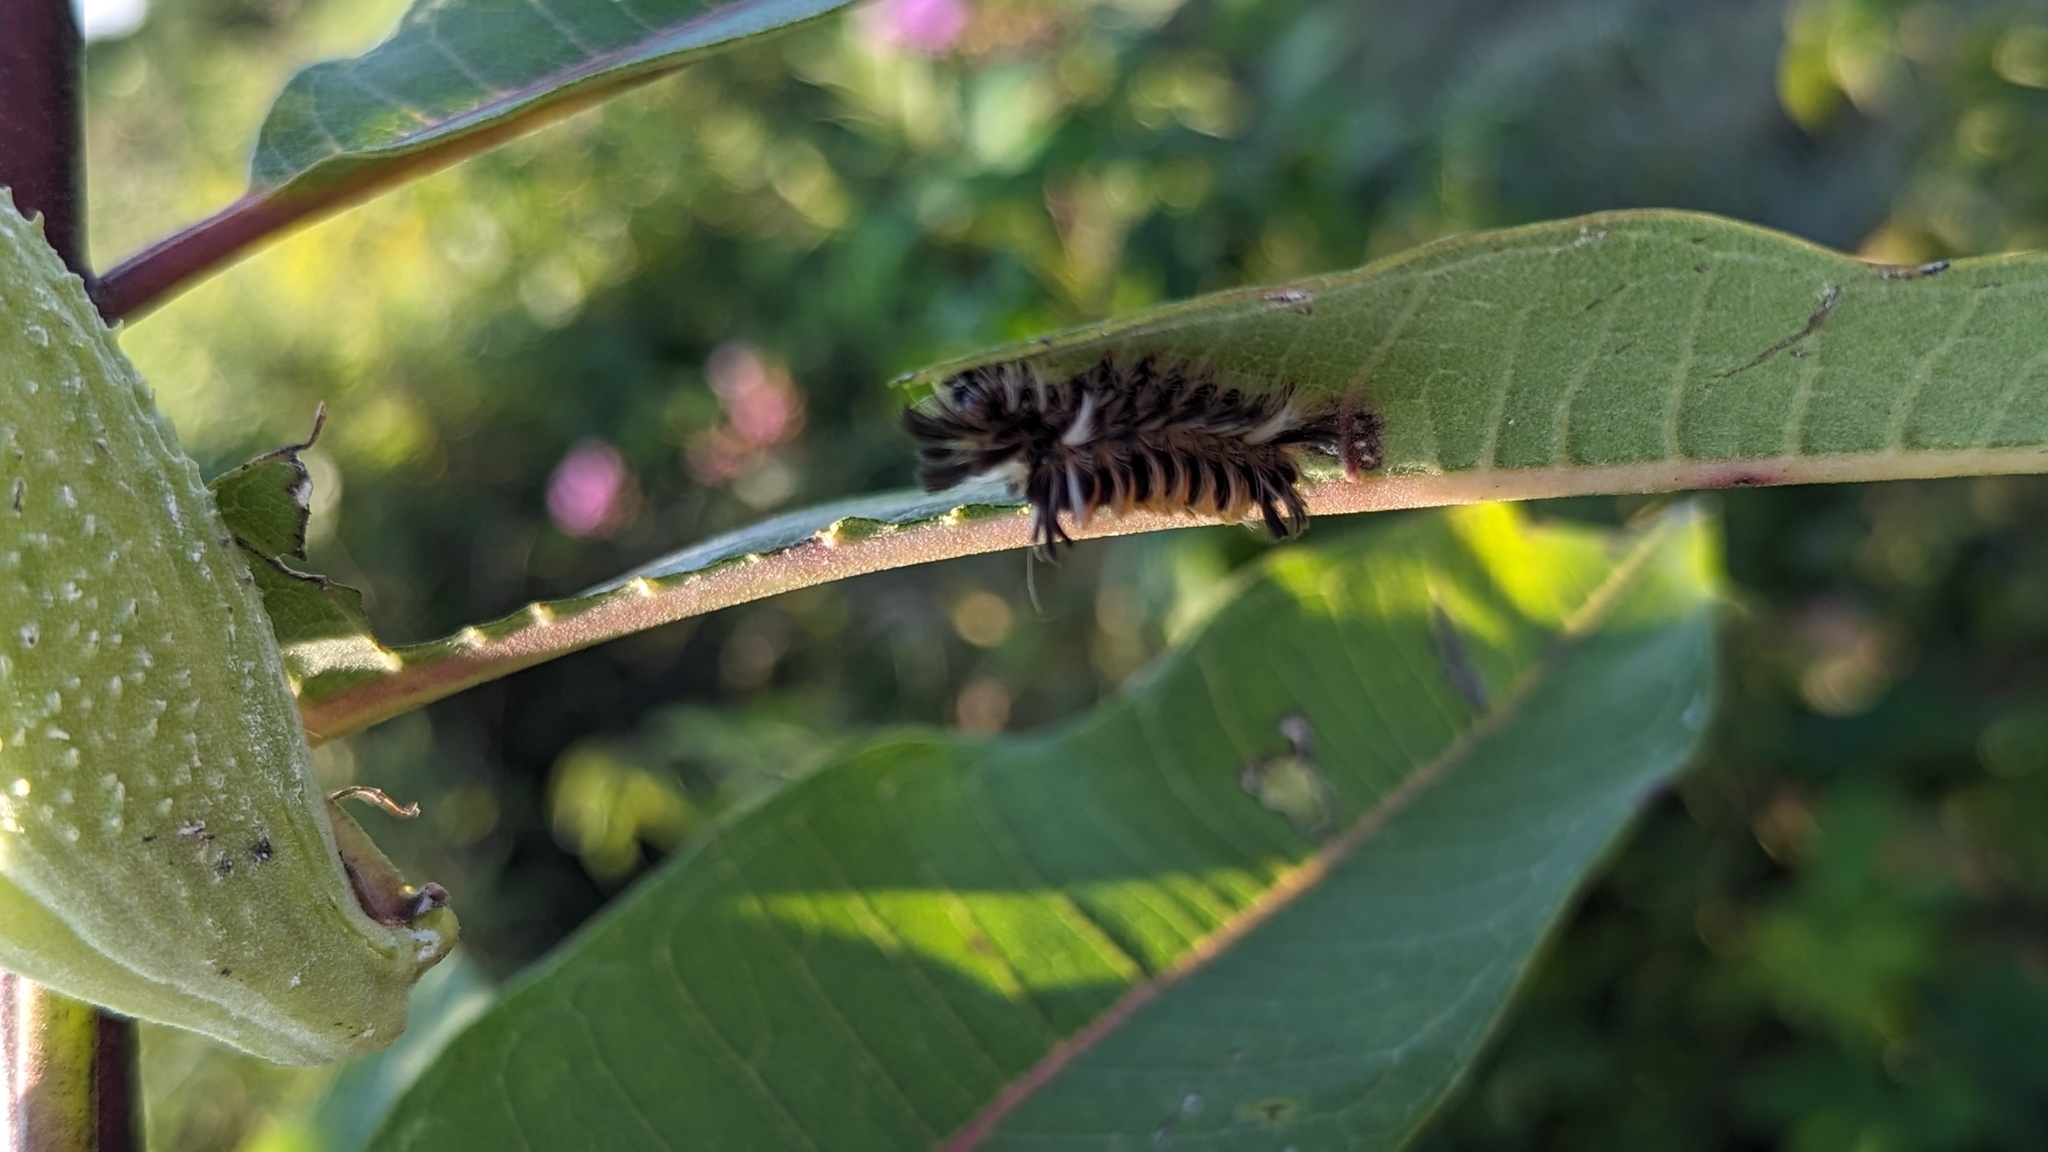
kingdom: Animalia
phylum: Arthropoda
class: Insecta
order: Lepidoptera
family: Erebidae
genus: Euchaetes
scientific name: Euchaetes egle
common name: Milkweed tussock moth
